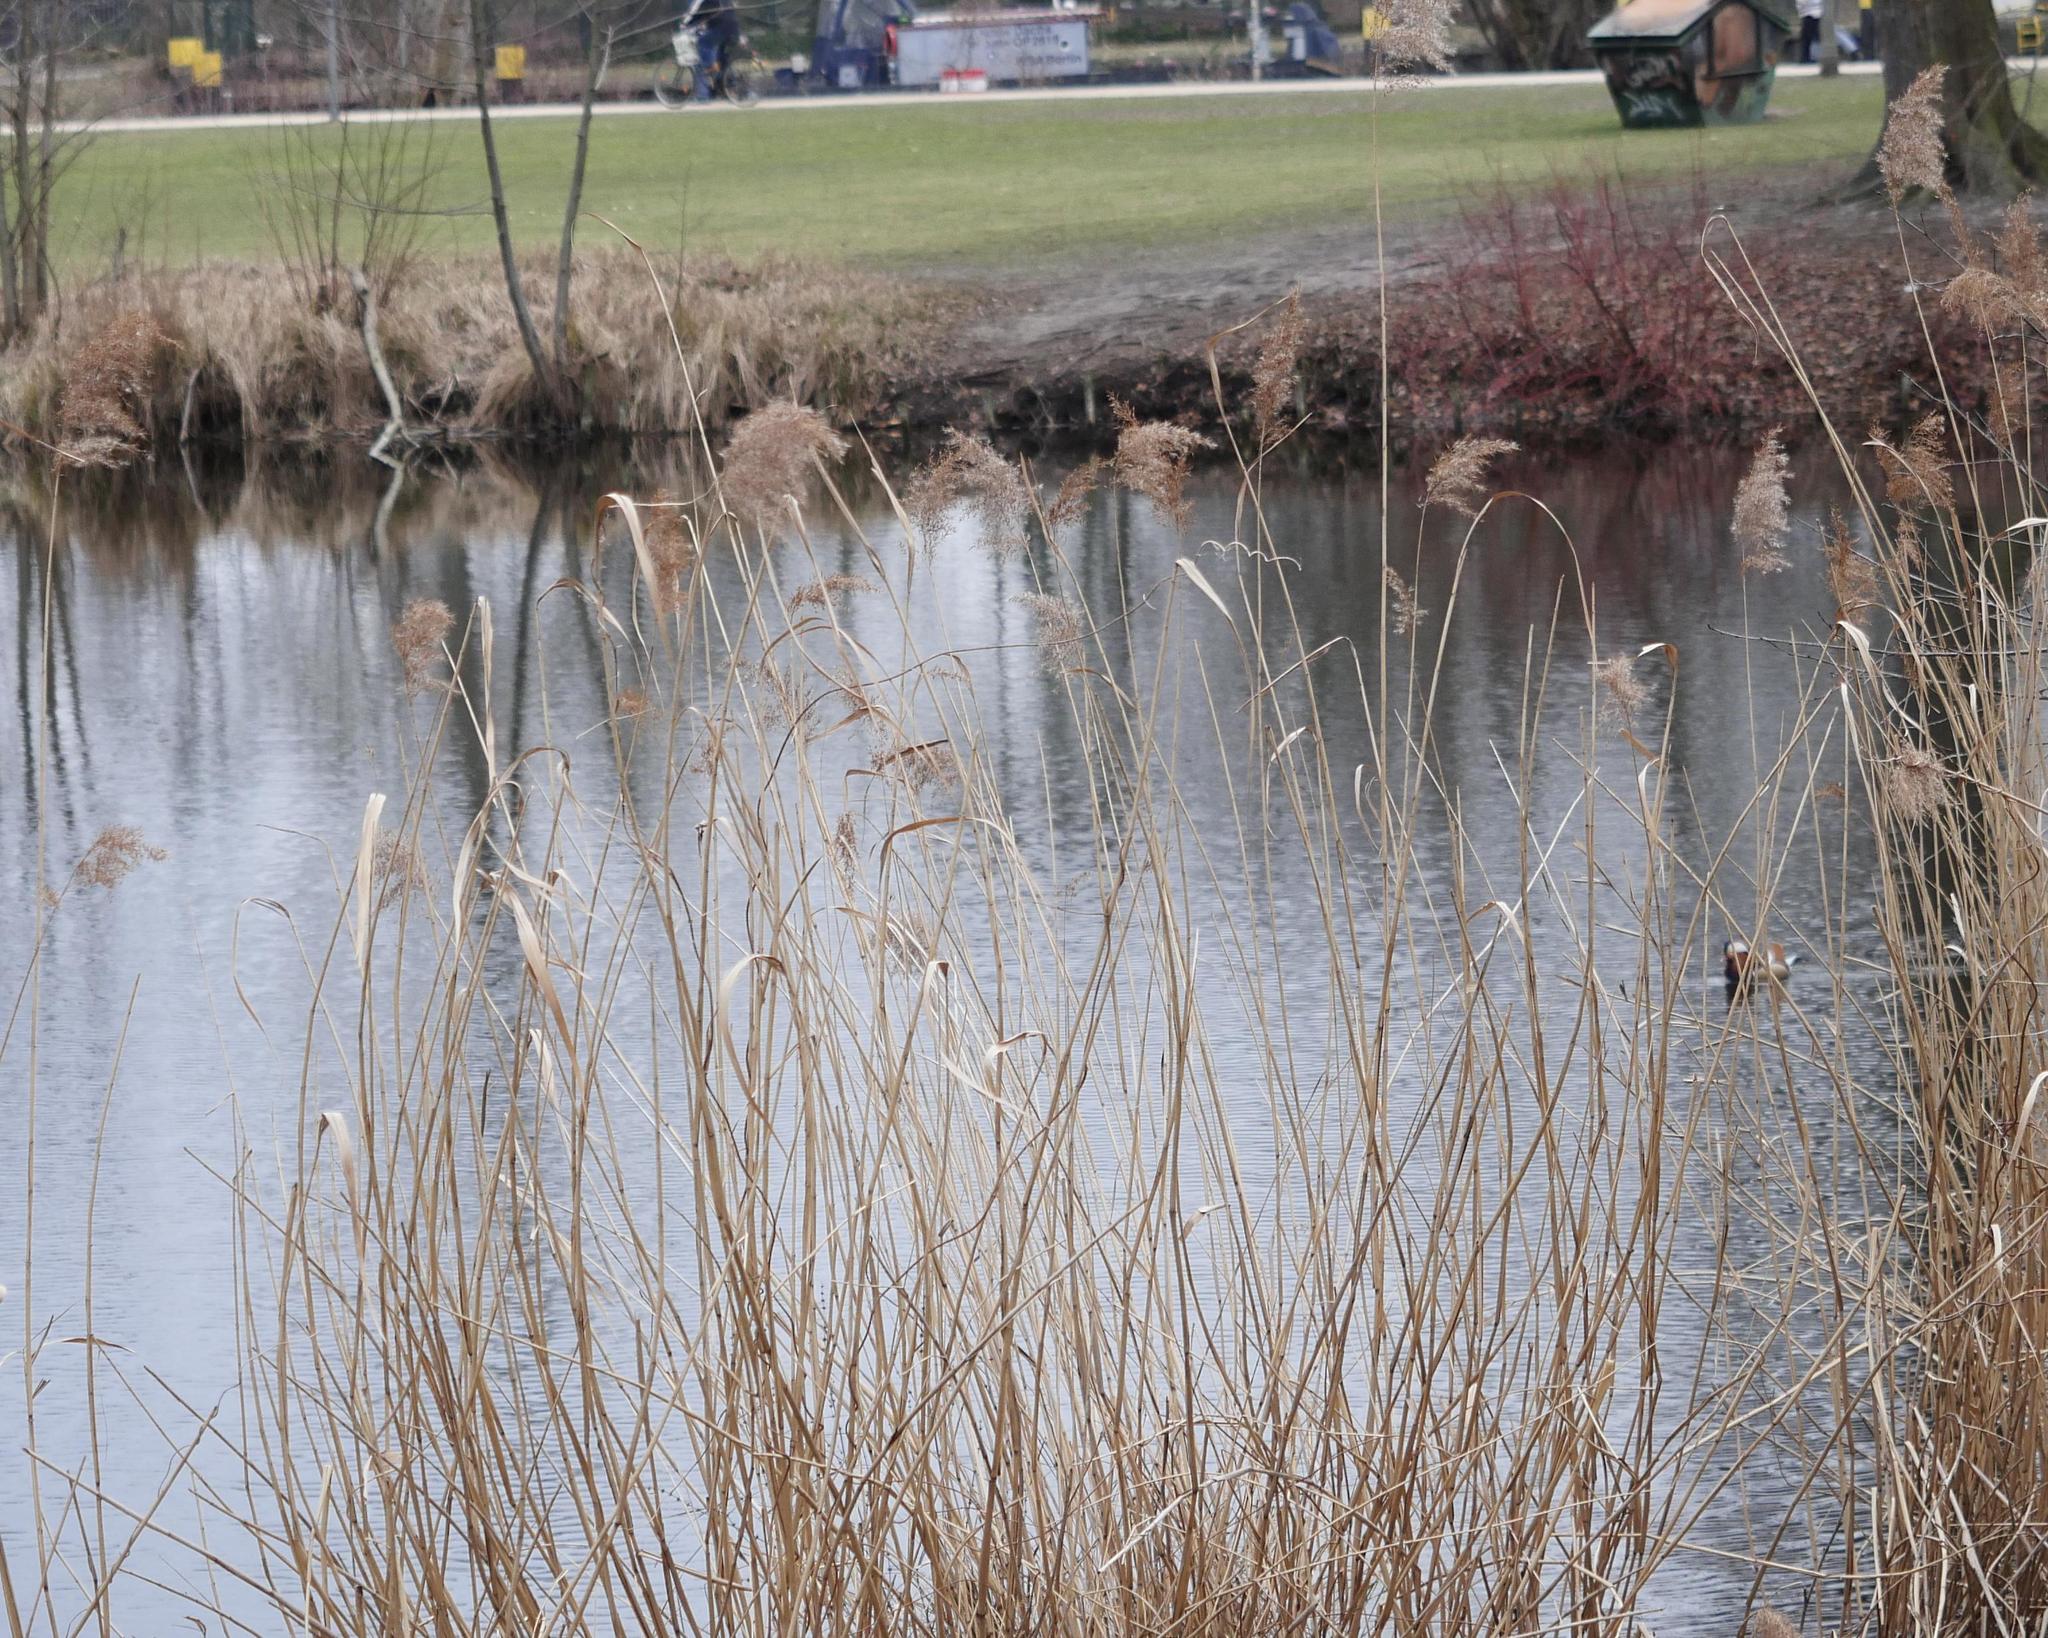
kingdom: Plantae
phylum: Tracheophyta
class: Liliopsida
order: Poales
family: Poaceae
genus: Phragmites
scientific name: Phragmites australis
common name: Common reed
